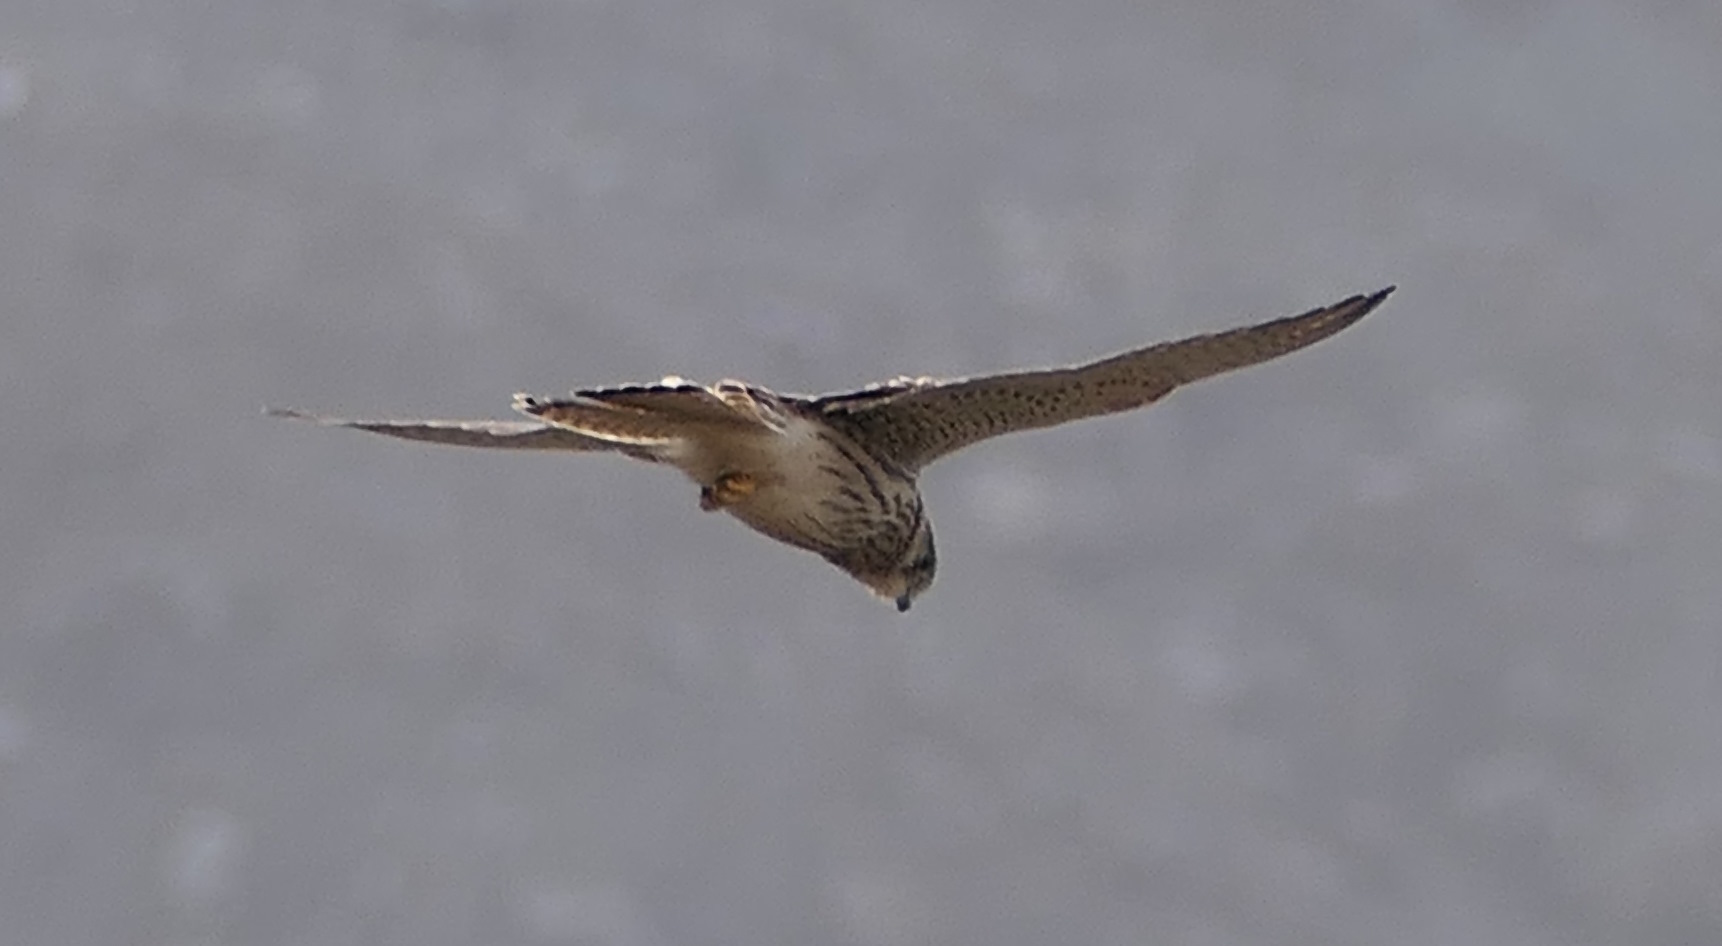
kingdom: Animalia
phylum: Chordata
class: Aves
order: Falconiformes
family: Falconidae
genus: Falco
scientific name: Falco tinnunculus
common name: Common kestrel
